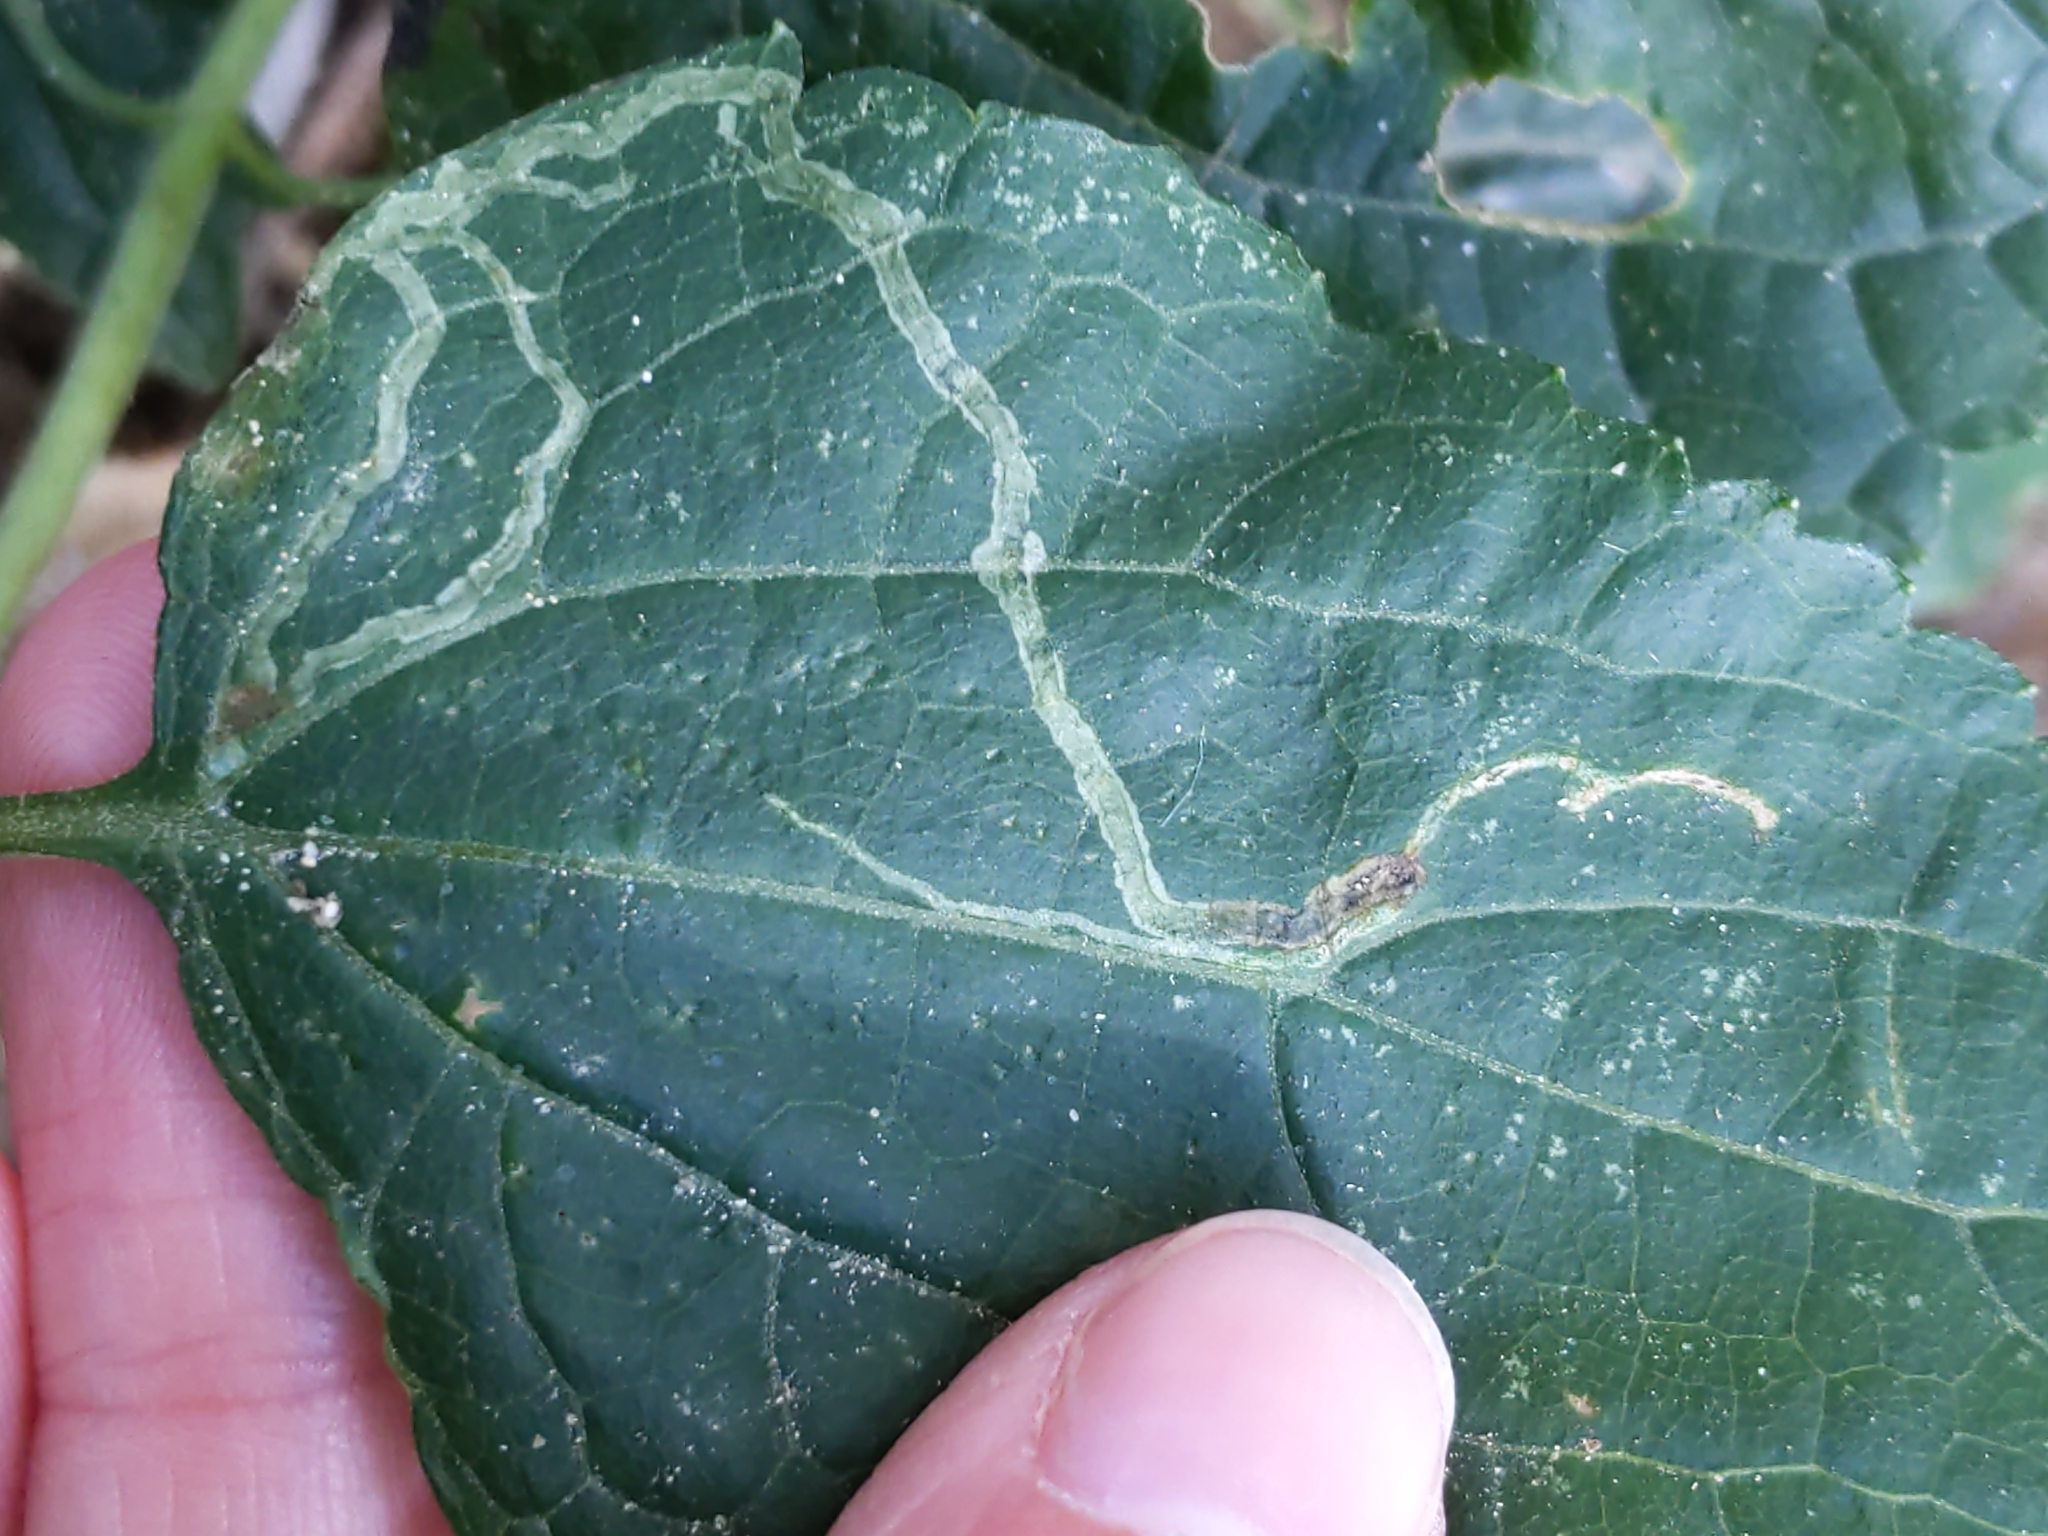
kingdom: Animalia
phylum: Arthropoda
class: Insecta
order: Diptera
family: Agromyzidae
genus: Liriomyza
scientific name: Liriomyza
